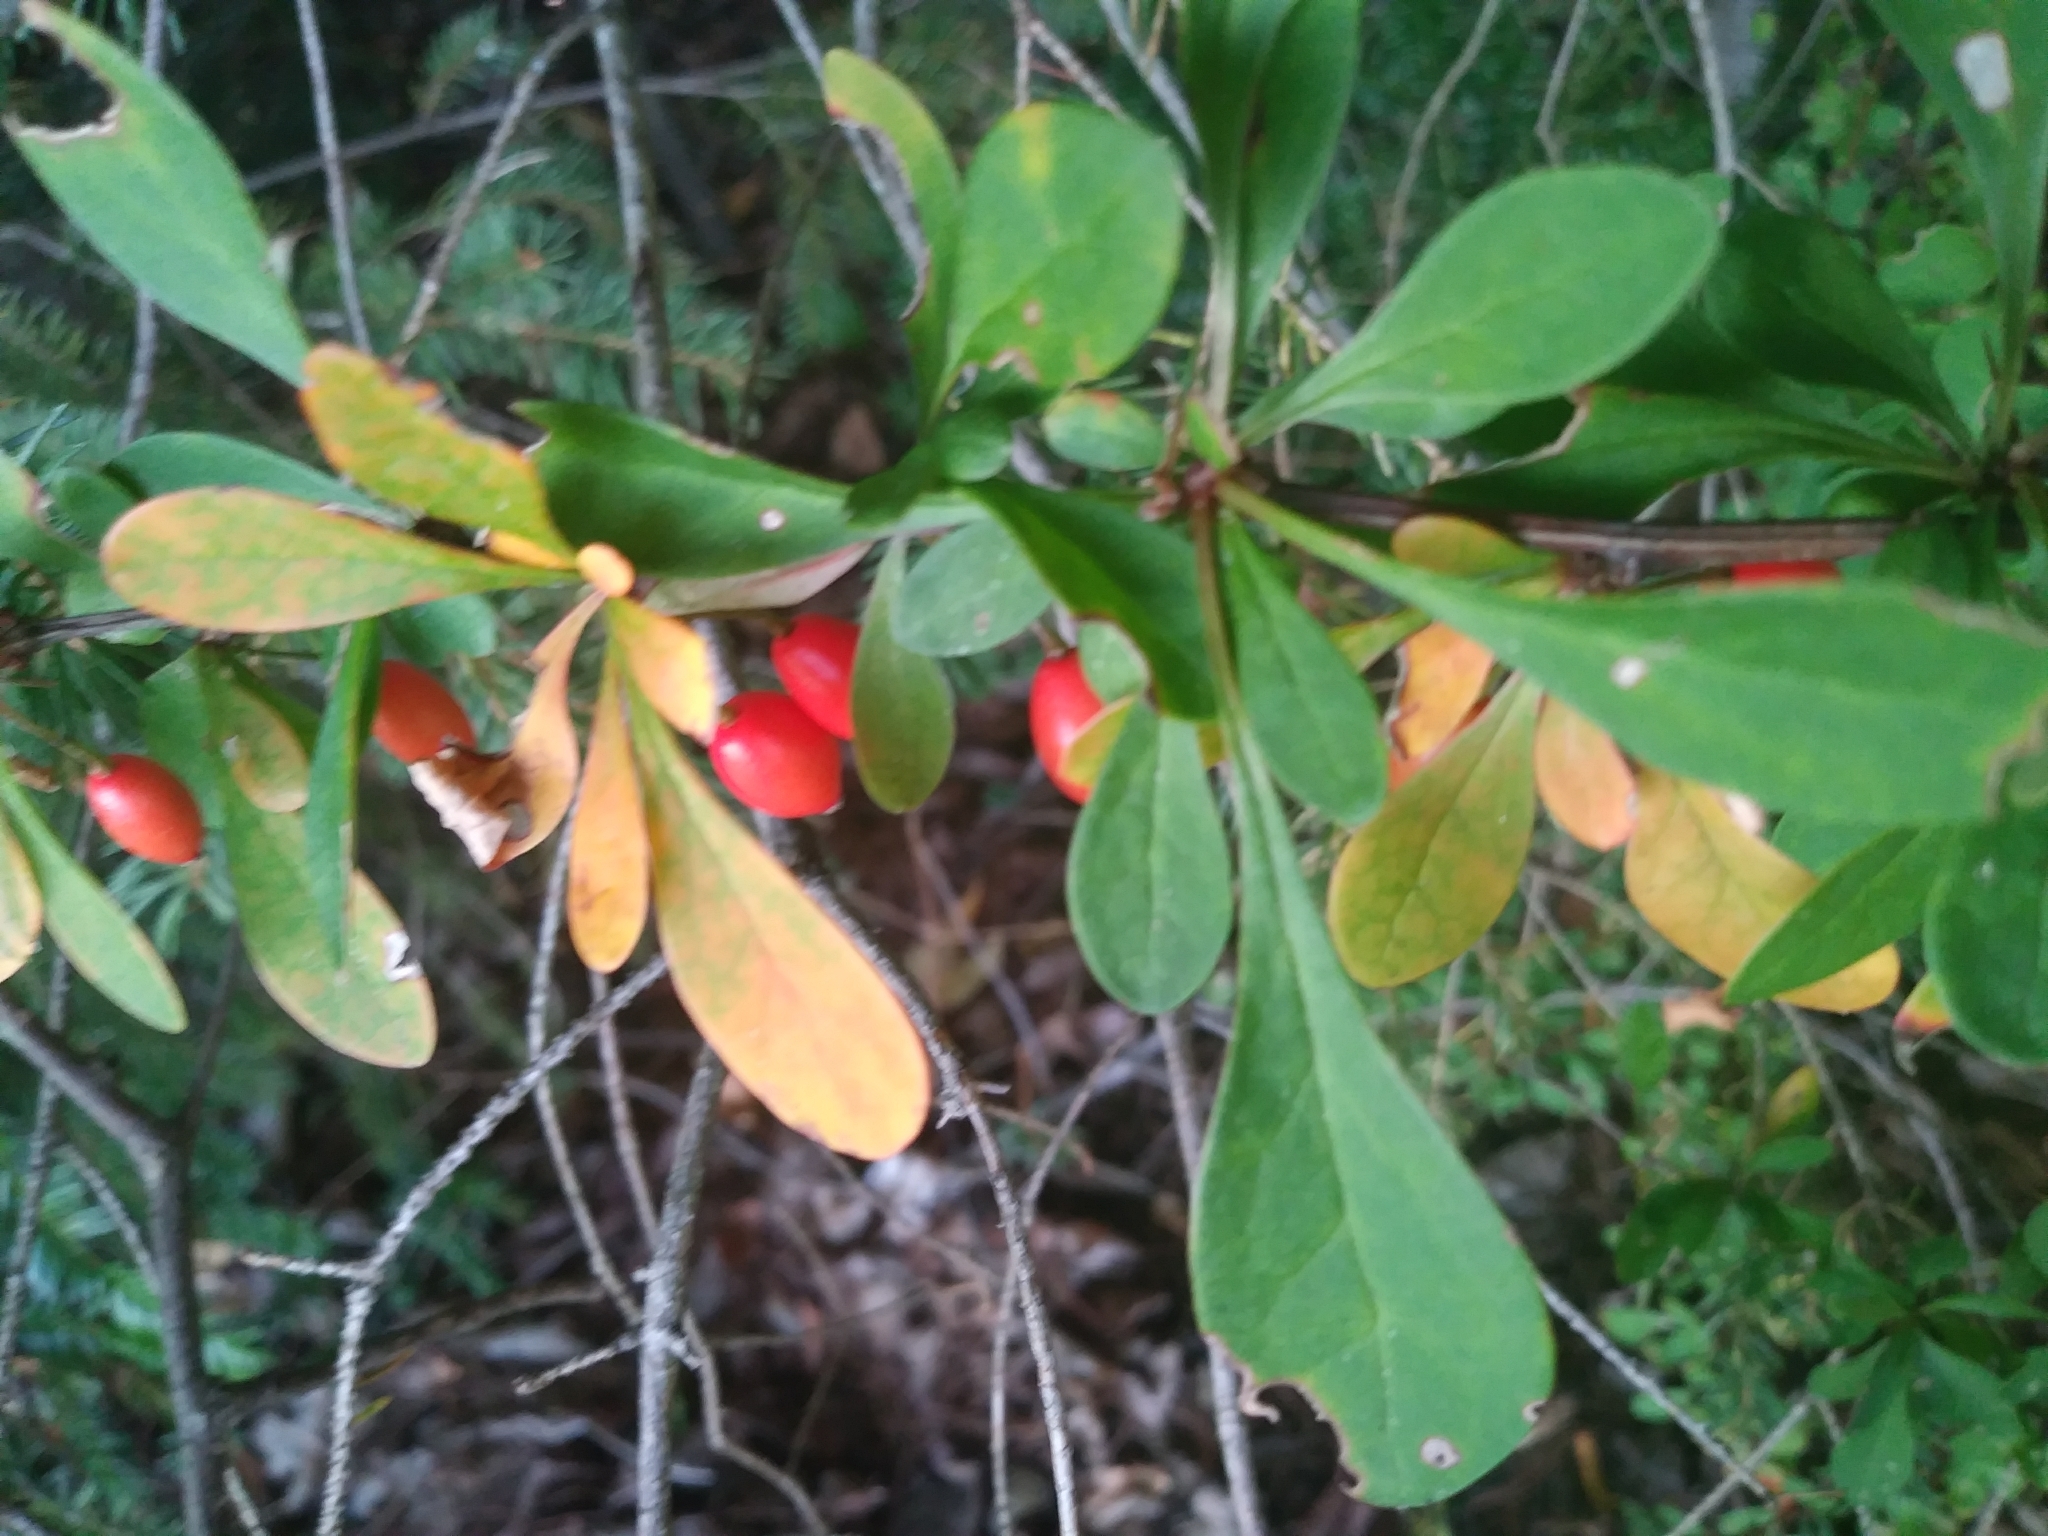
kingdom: Plantae
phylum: Tracheophyta
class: Magnoliopsida
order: Ranunculales
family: Berberidaceae
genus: Berberis
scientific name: Berberis thunbergii
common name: Japanese barberry
